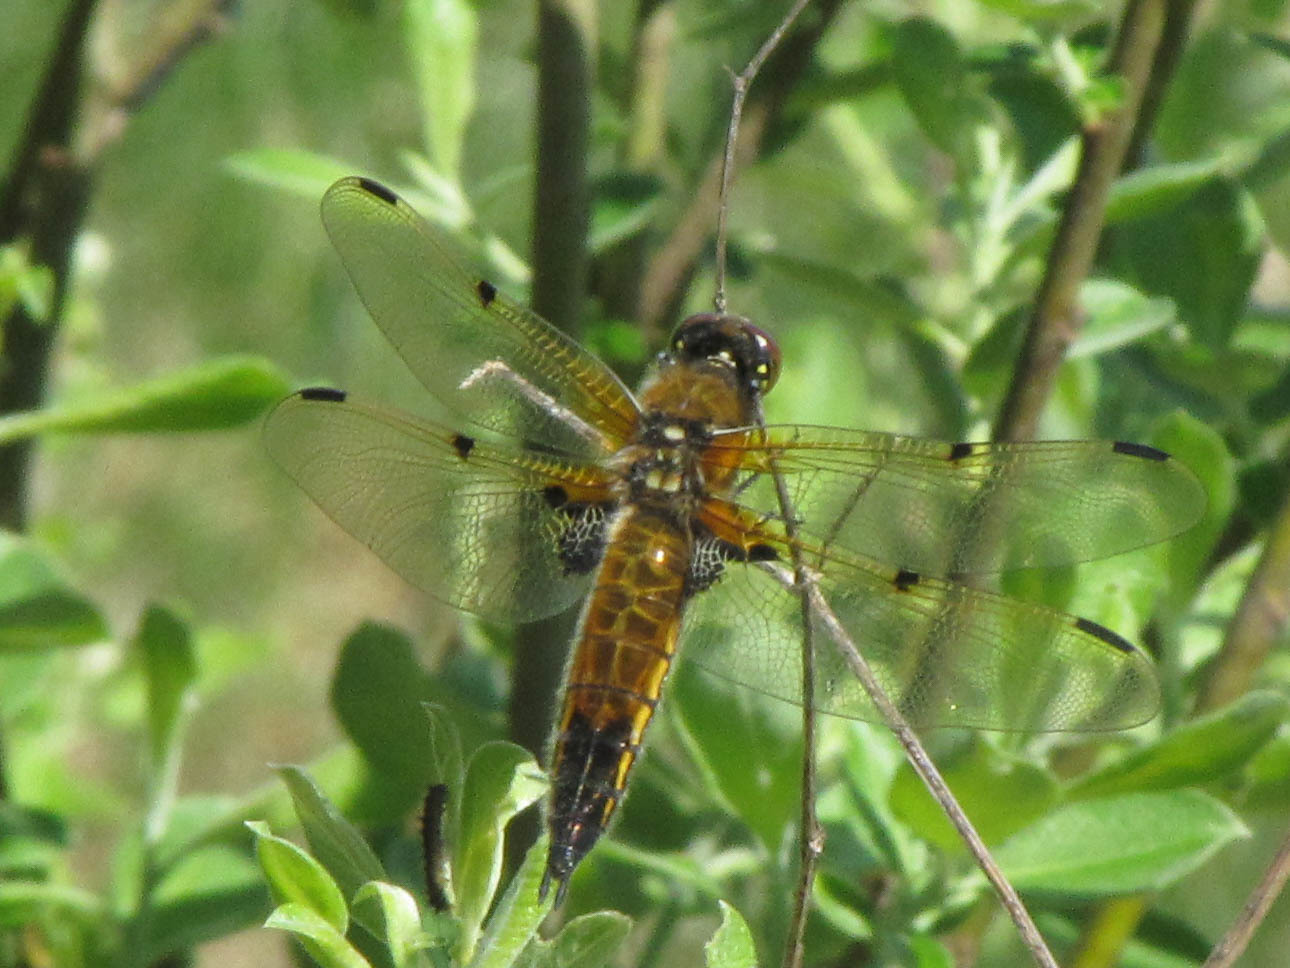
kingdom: Animalia
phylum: Arthropoda
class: Insecta
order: Odonata
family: Libellulidae
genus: Libellula
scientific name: Libellula quadrimaculata
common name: Four-spotted chaser
